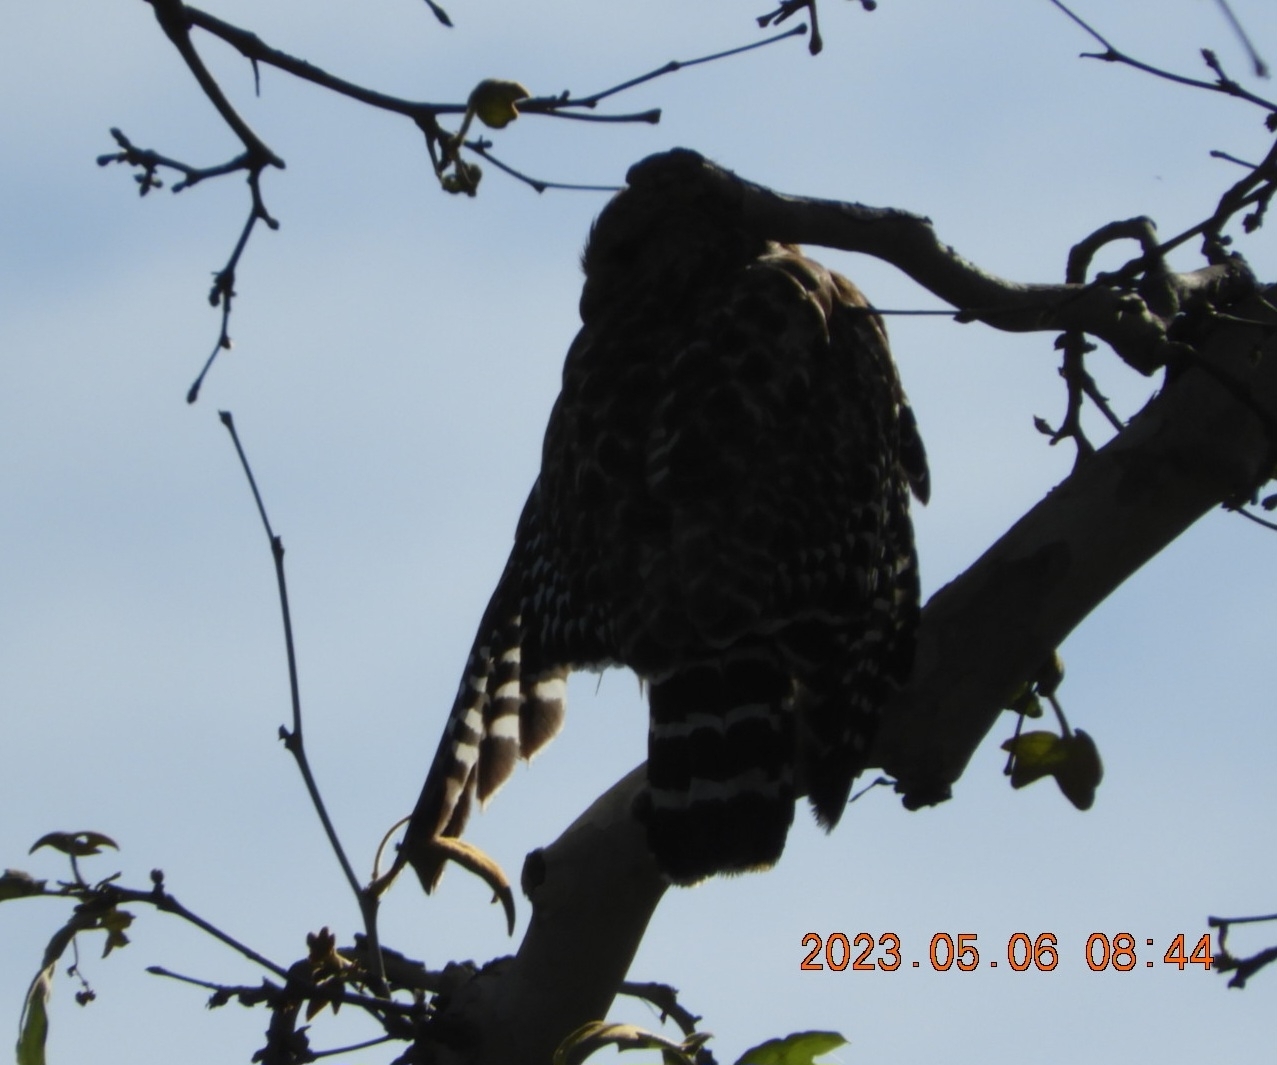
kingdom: Animalia
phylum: Chordata
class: Aves
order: Accipitriformes
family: Accipitridae
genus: Buteo
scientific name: Buteo lineatus
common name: Red-shouldered hawk
